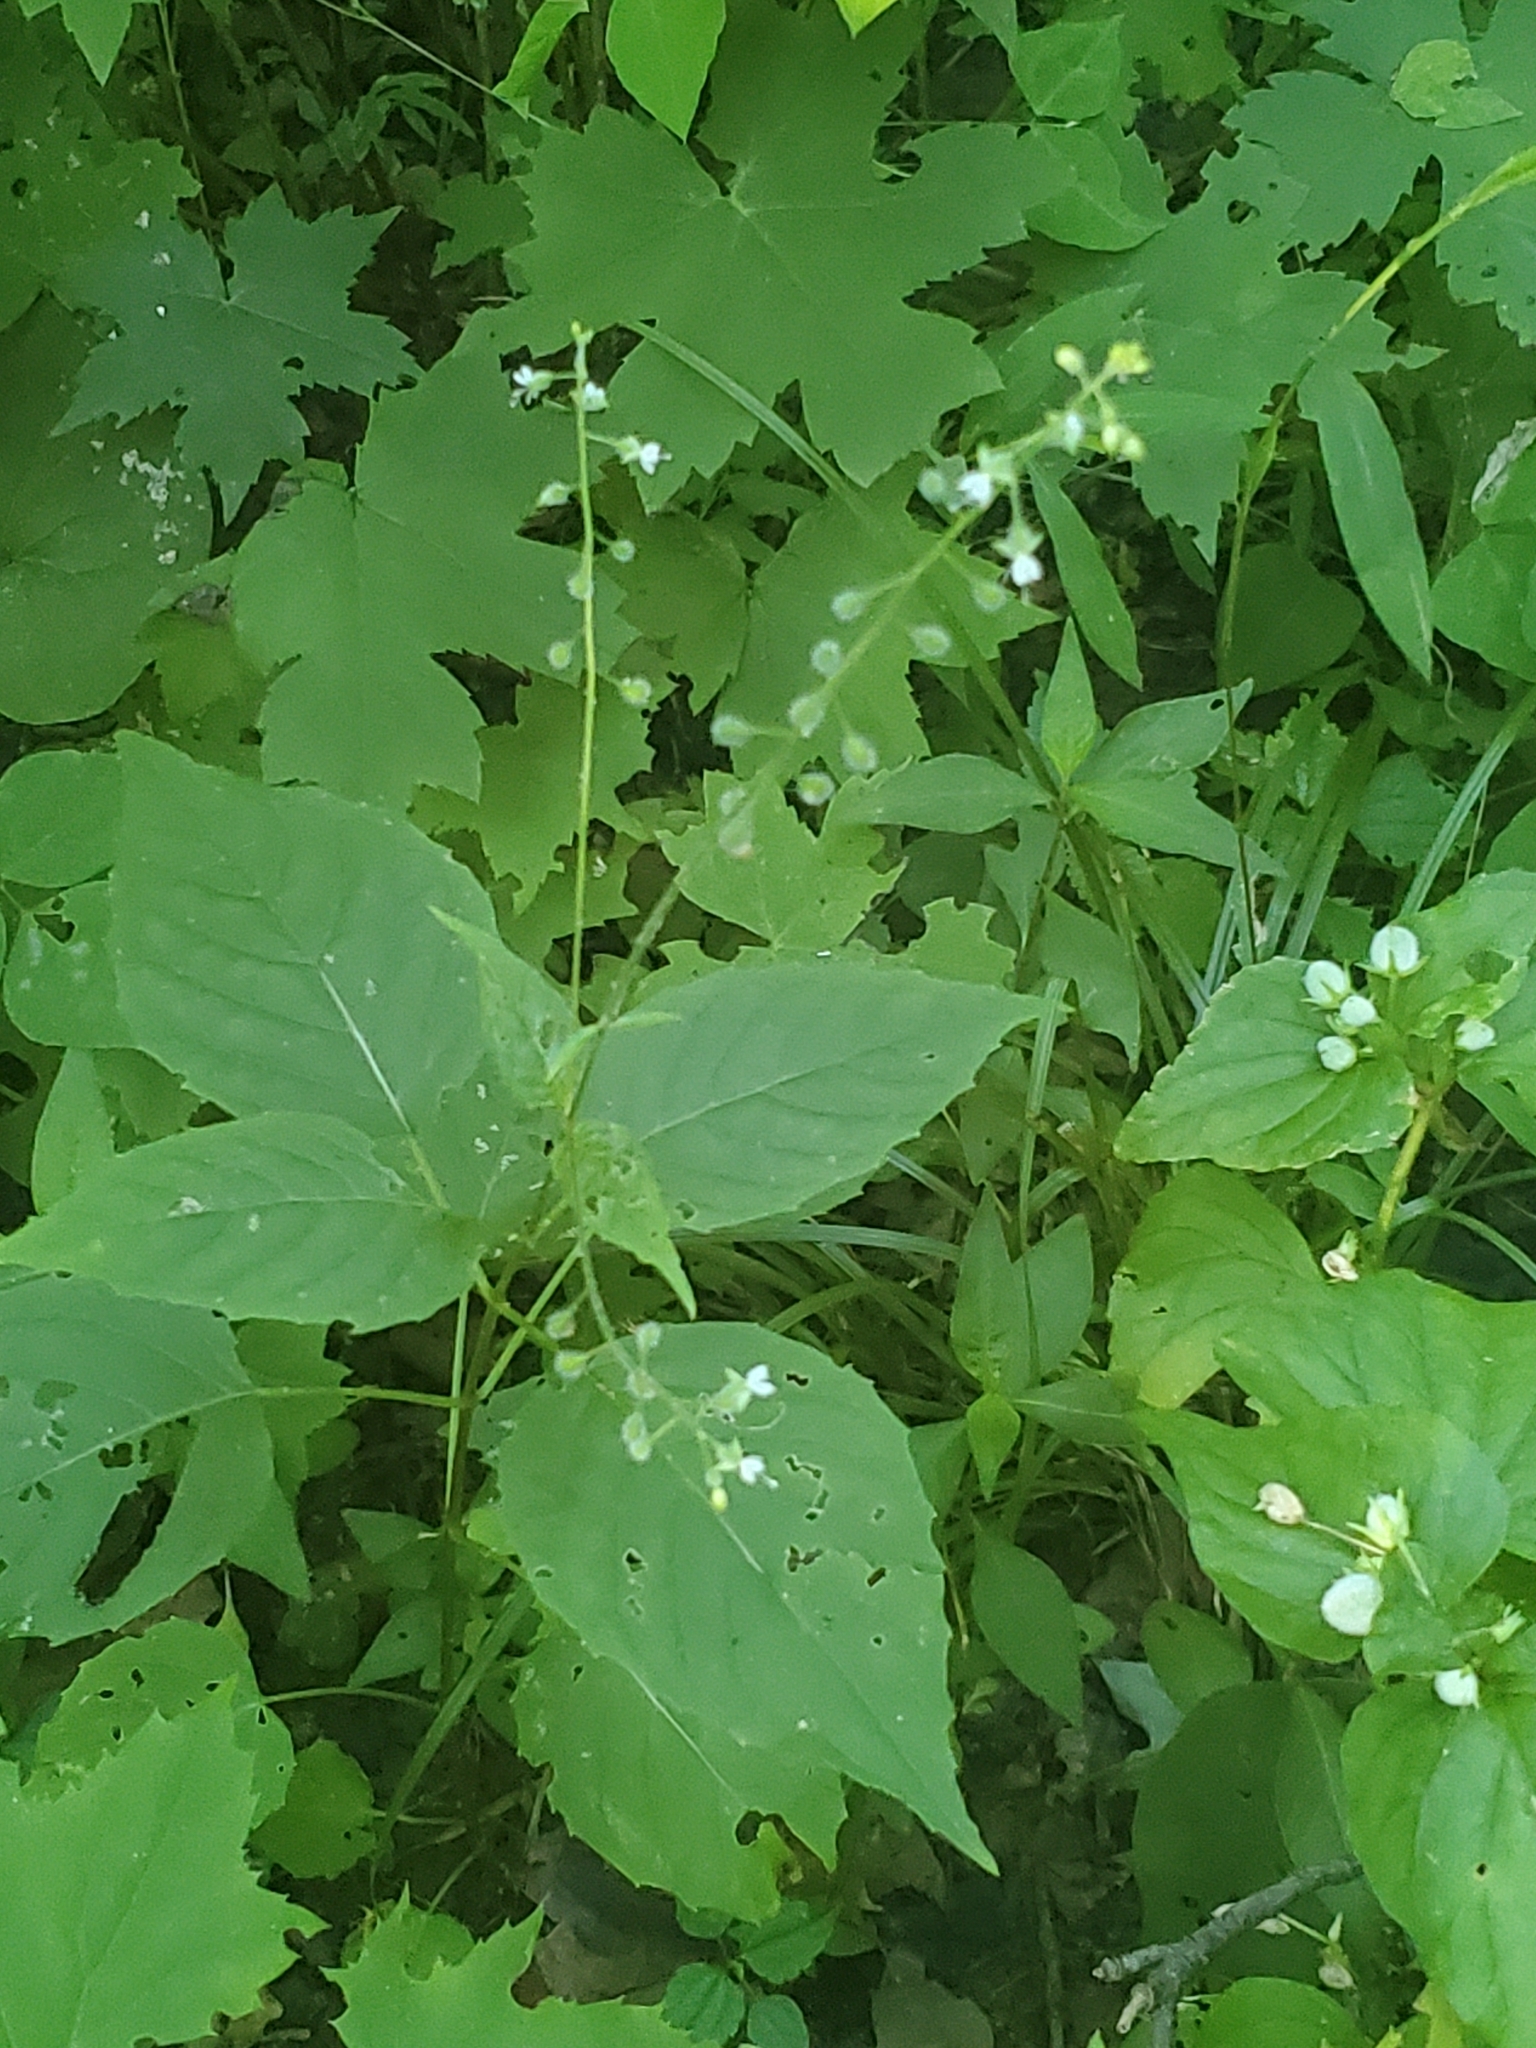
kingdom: Plantae
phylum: Tracheophyta
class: Magnoliopsida
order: Myrtales
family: Onagraceae
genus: Circaea
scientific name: Circaea canadensis
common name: Broad-leaved enchanter's nightshade
